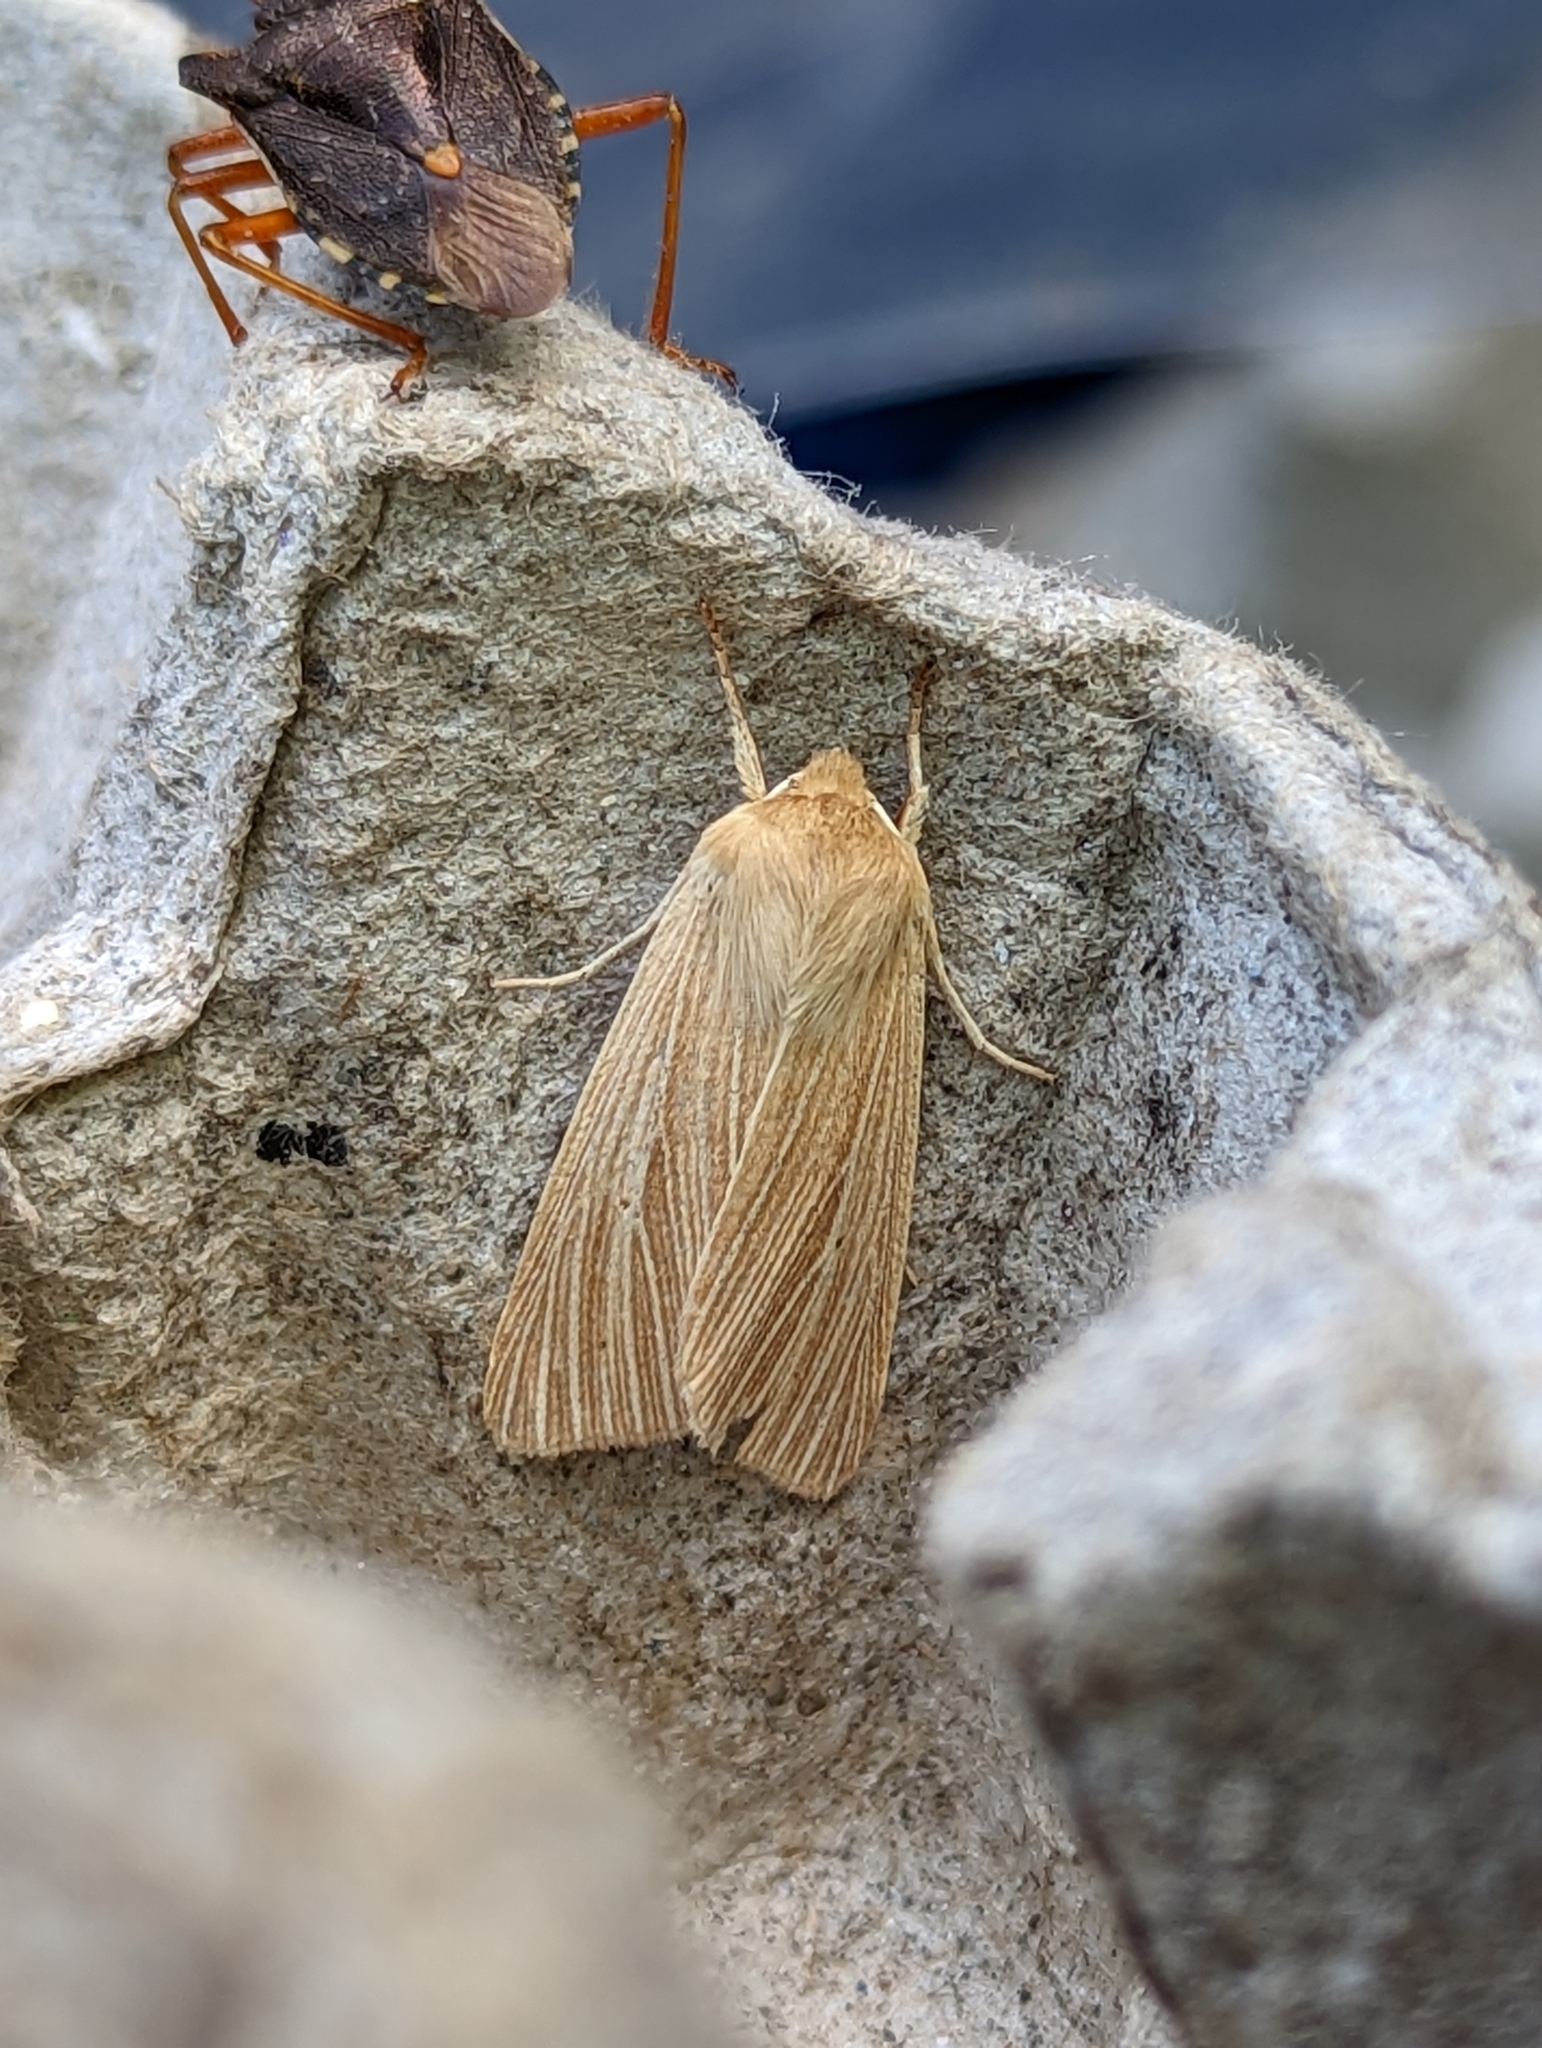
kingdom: Animalia
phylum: Arthropoda
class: Insecta
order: Lepidoptera
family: Noctuidae
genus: Mythimna
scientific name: Mythimna pallens
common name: Common wainscot
